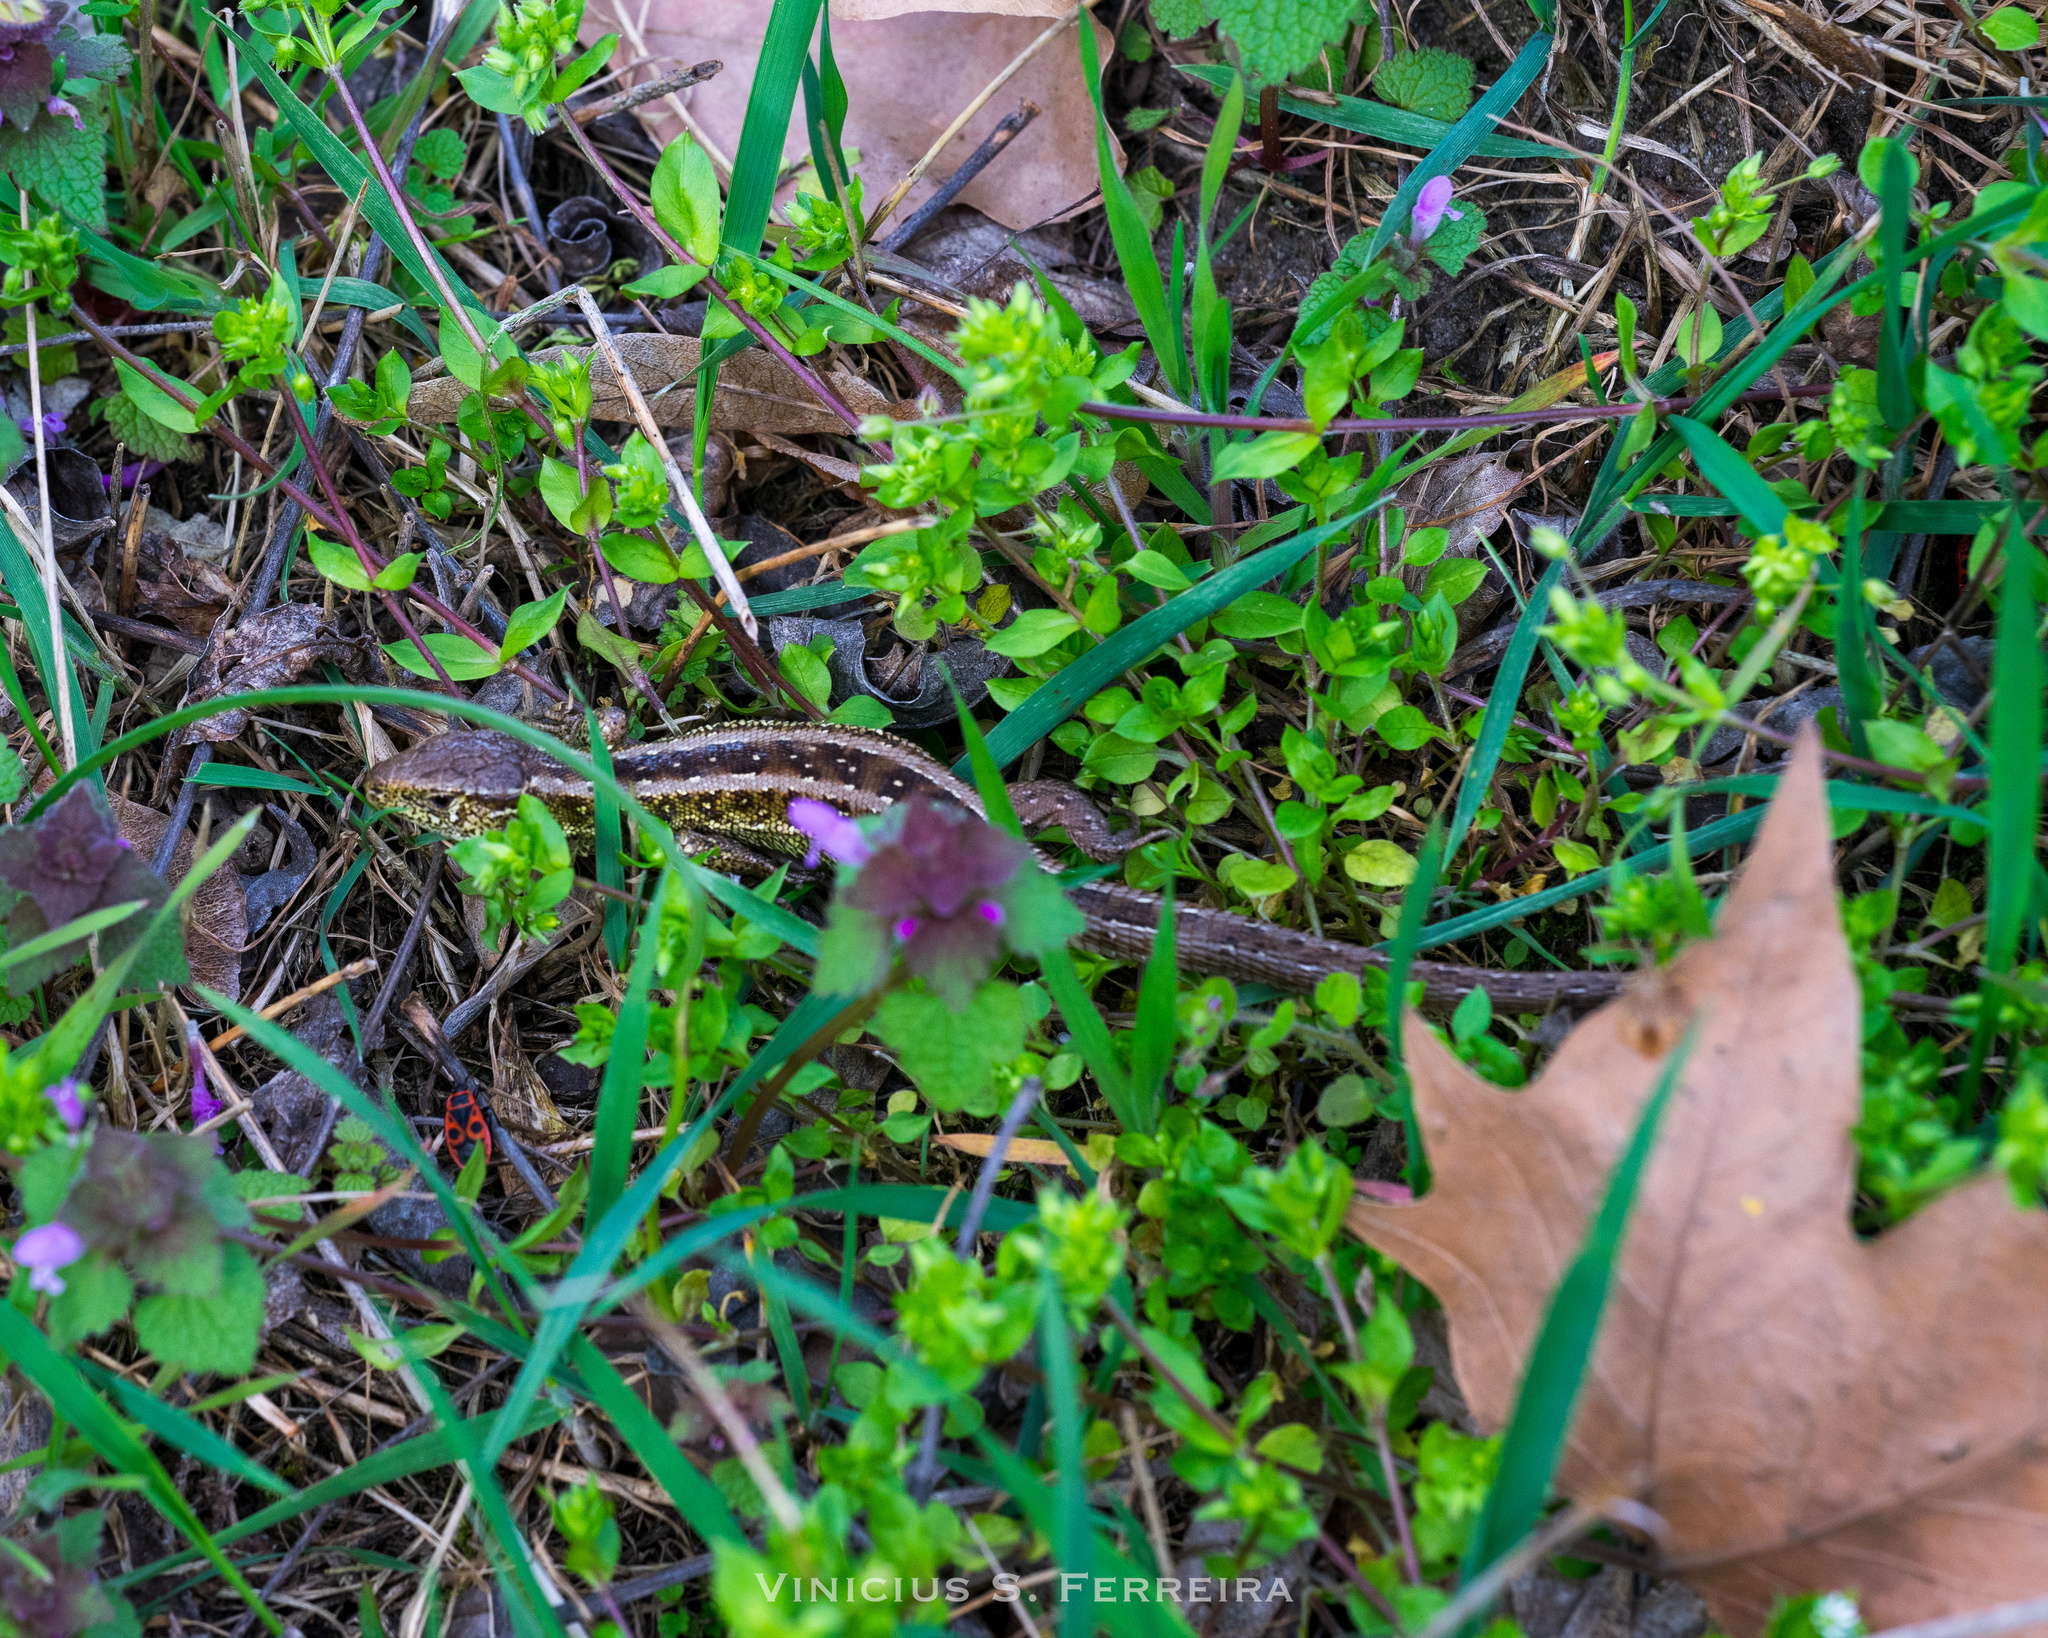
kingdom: Animalia
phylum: Chordata
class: Squamata
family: Lacertidae
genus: Lacerta
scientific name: Lacerta agilis
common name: Sand lizard
